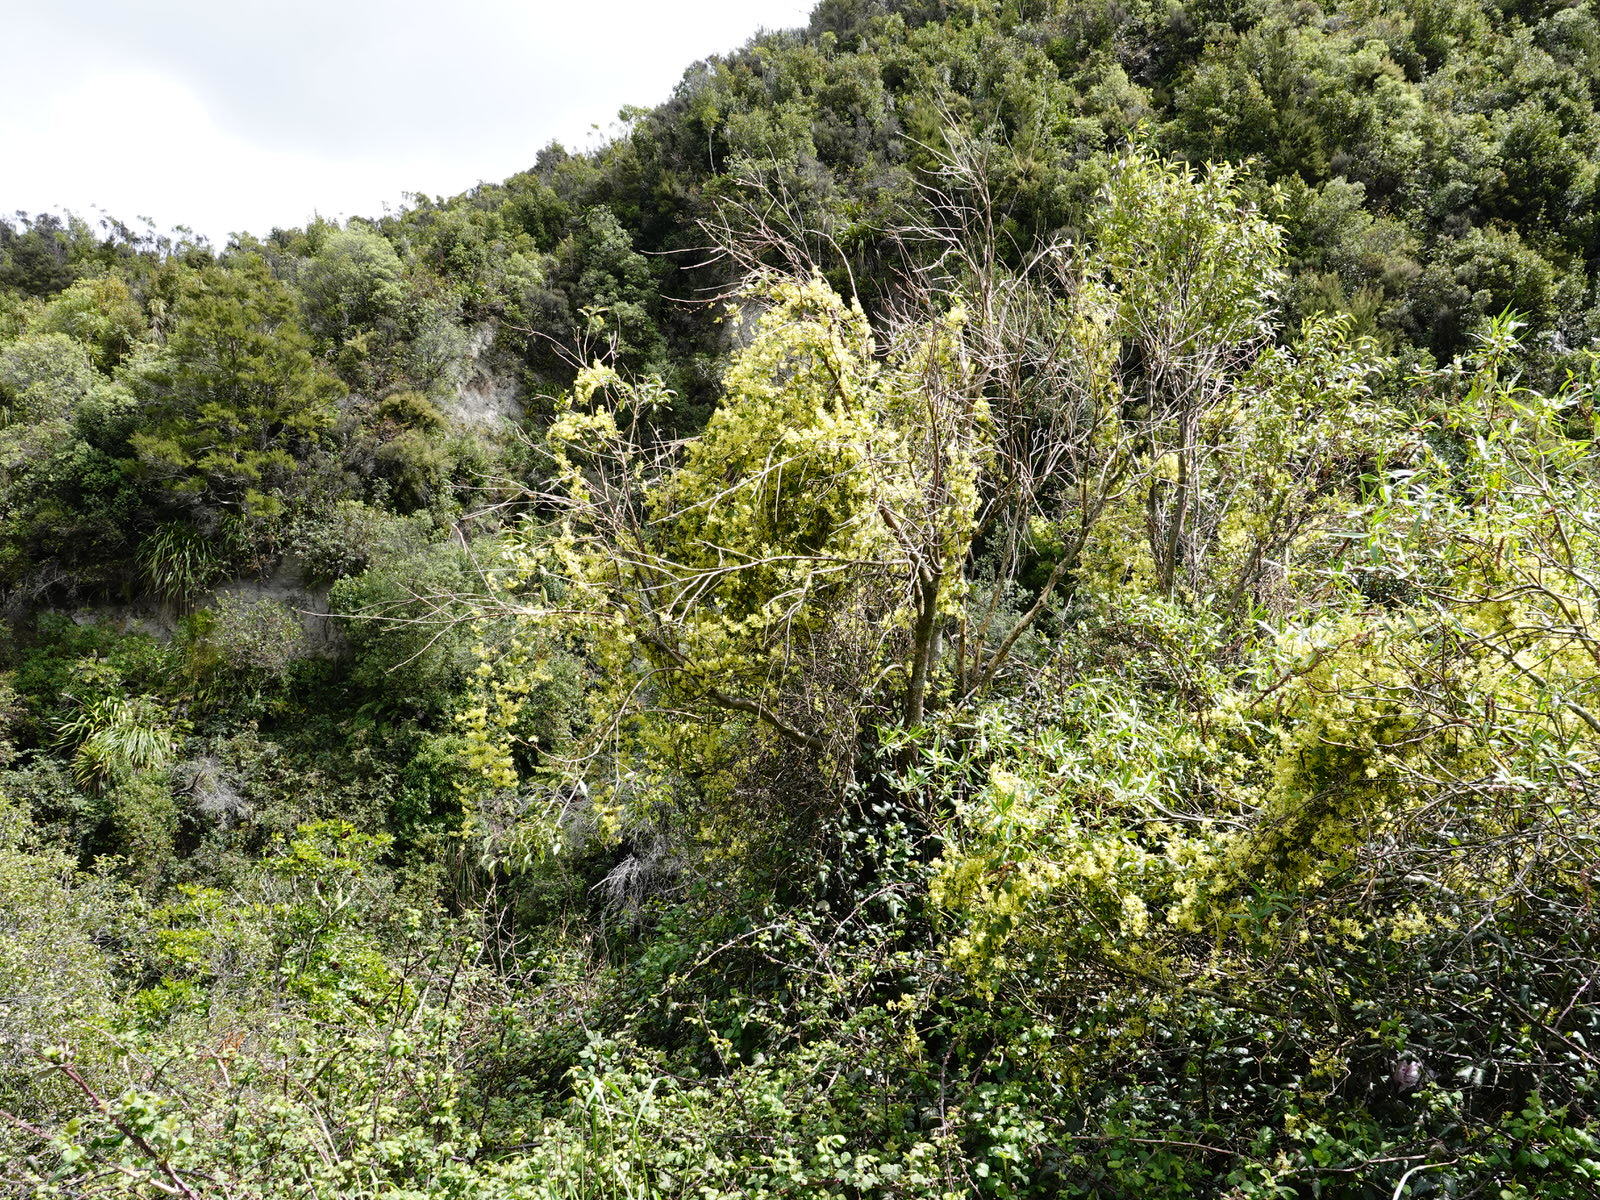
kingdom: Plantae
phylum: Tracheophyta
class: Magnoliopsida
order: Ranunculales
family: Ranunculaceae
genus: Clematis
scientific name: Clematis foetida
